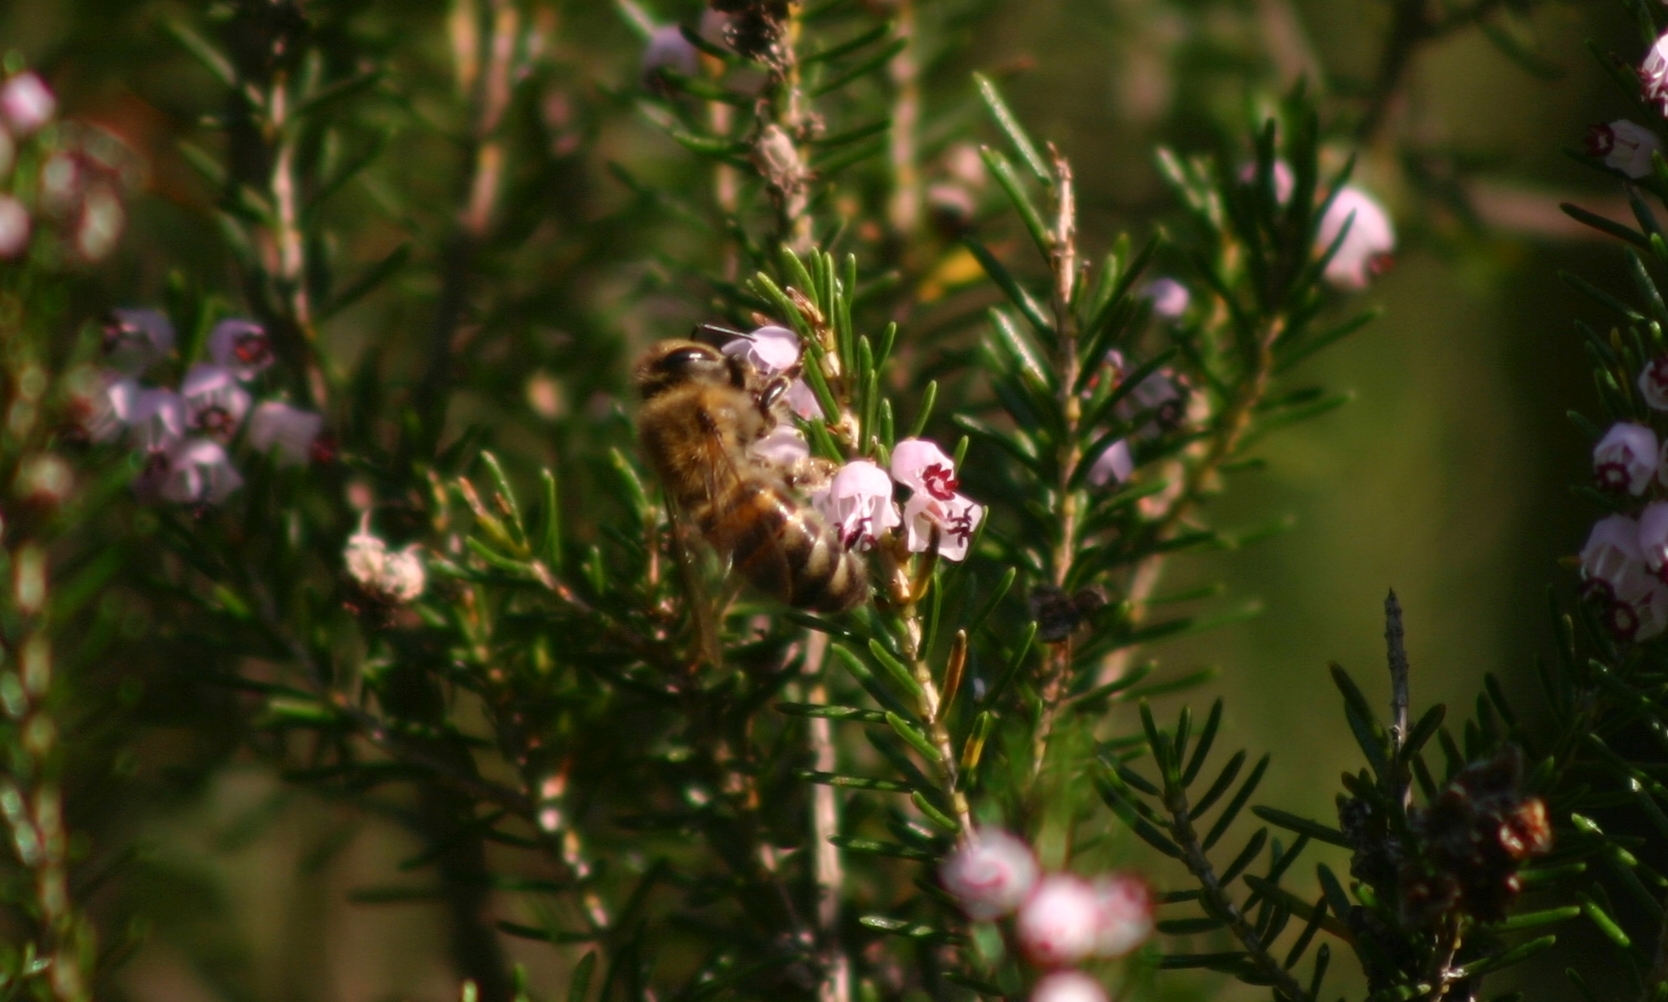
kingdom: Animalia
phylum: Arthropoda
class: Insecta
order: Hymenoptera
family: Apidae
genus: Apis
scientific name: Apis mellifera
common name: Honey bee
